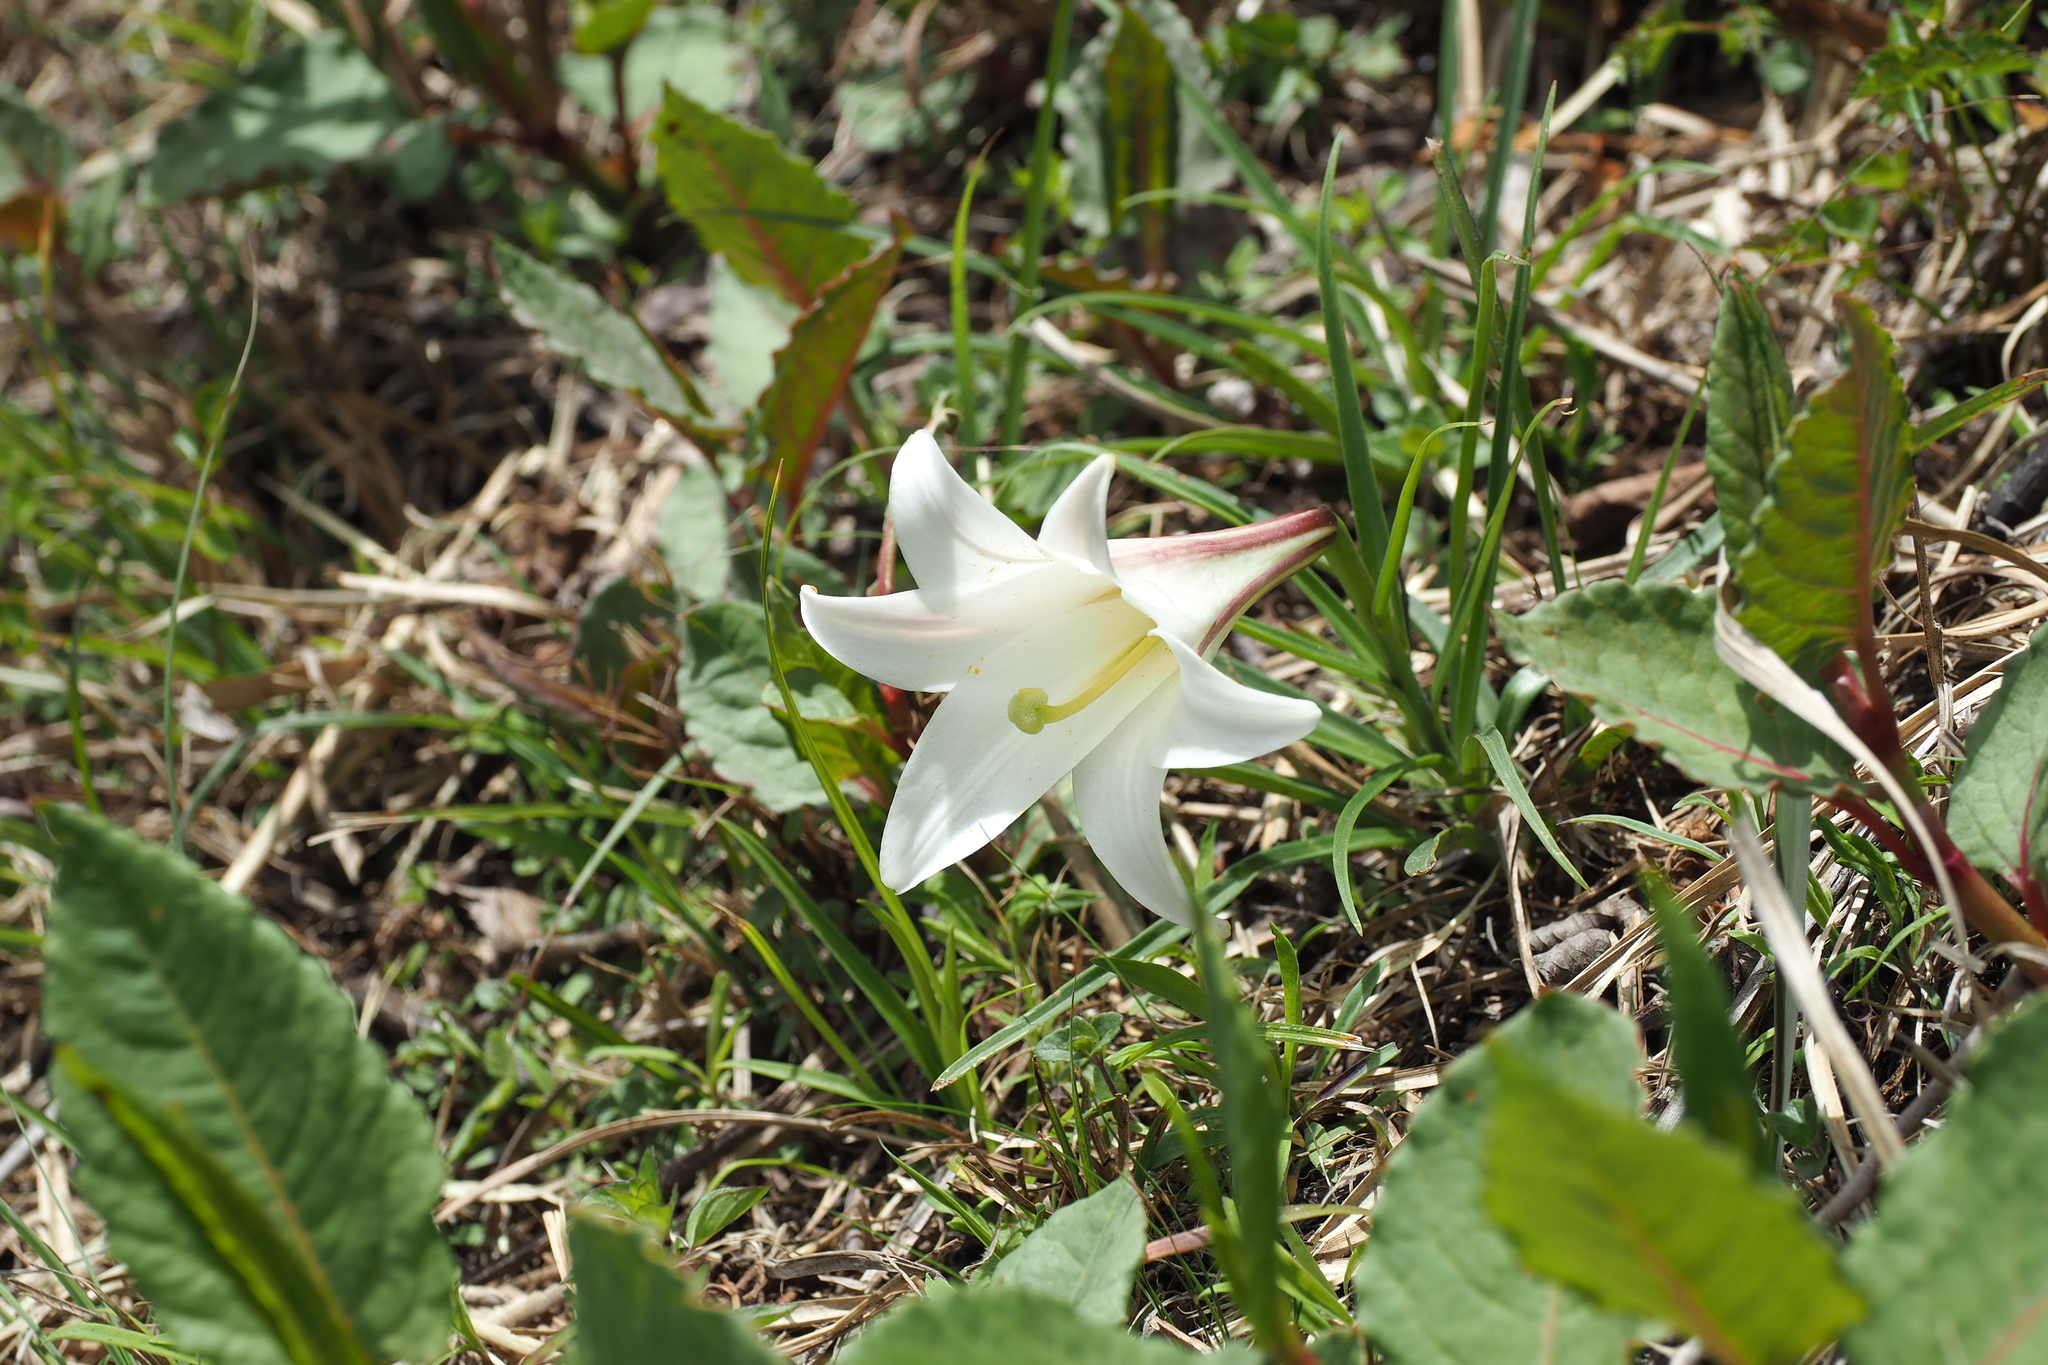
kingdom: Plantae
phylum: Tracheophyta
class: Liliopsida
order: Liliales
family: Liliaceae
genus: Lilium
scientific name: Lilium formosanum
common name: Formosa lily
